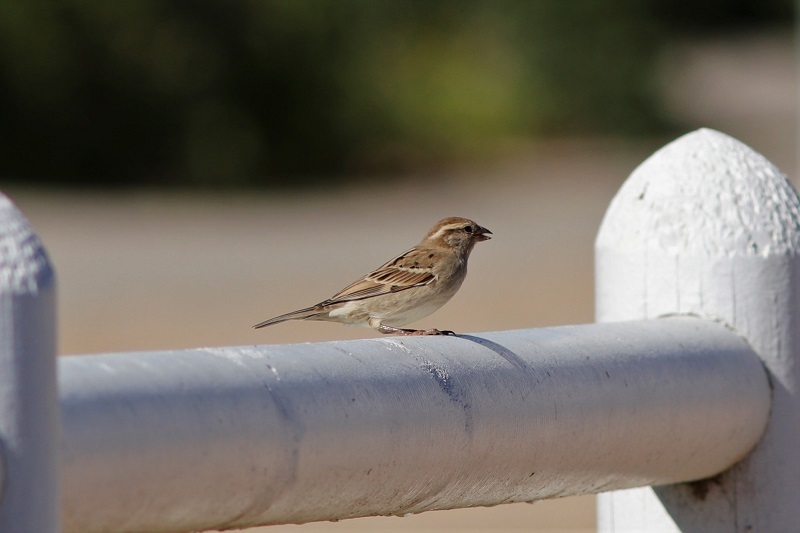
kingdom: Animalia
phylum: Chordata
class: Aves
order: Passeriformes
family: Passeridae
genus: Passer
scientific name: Passer domesticus
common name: House sparrow
